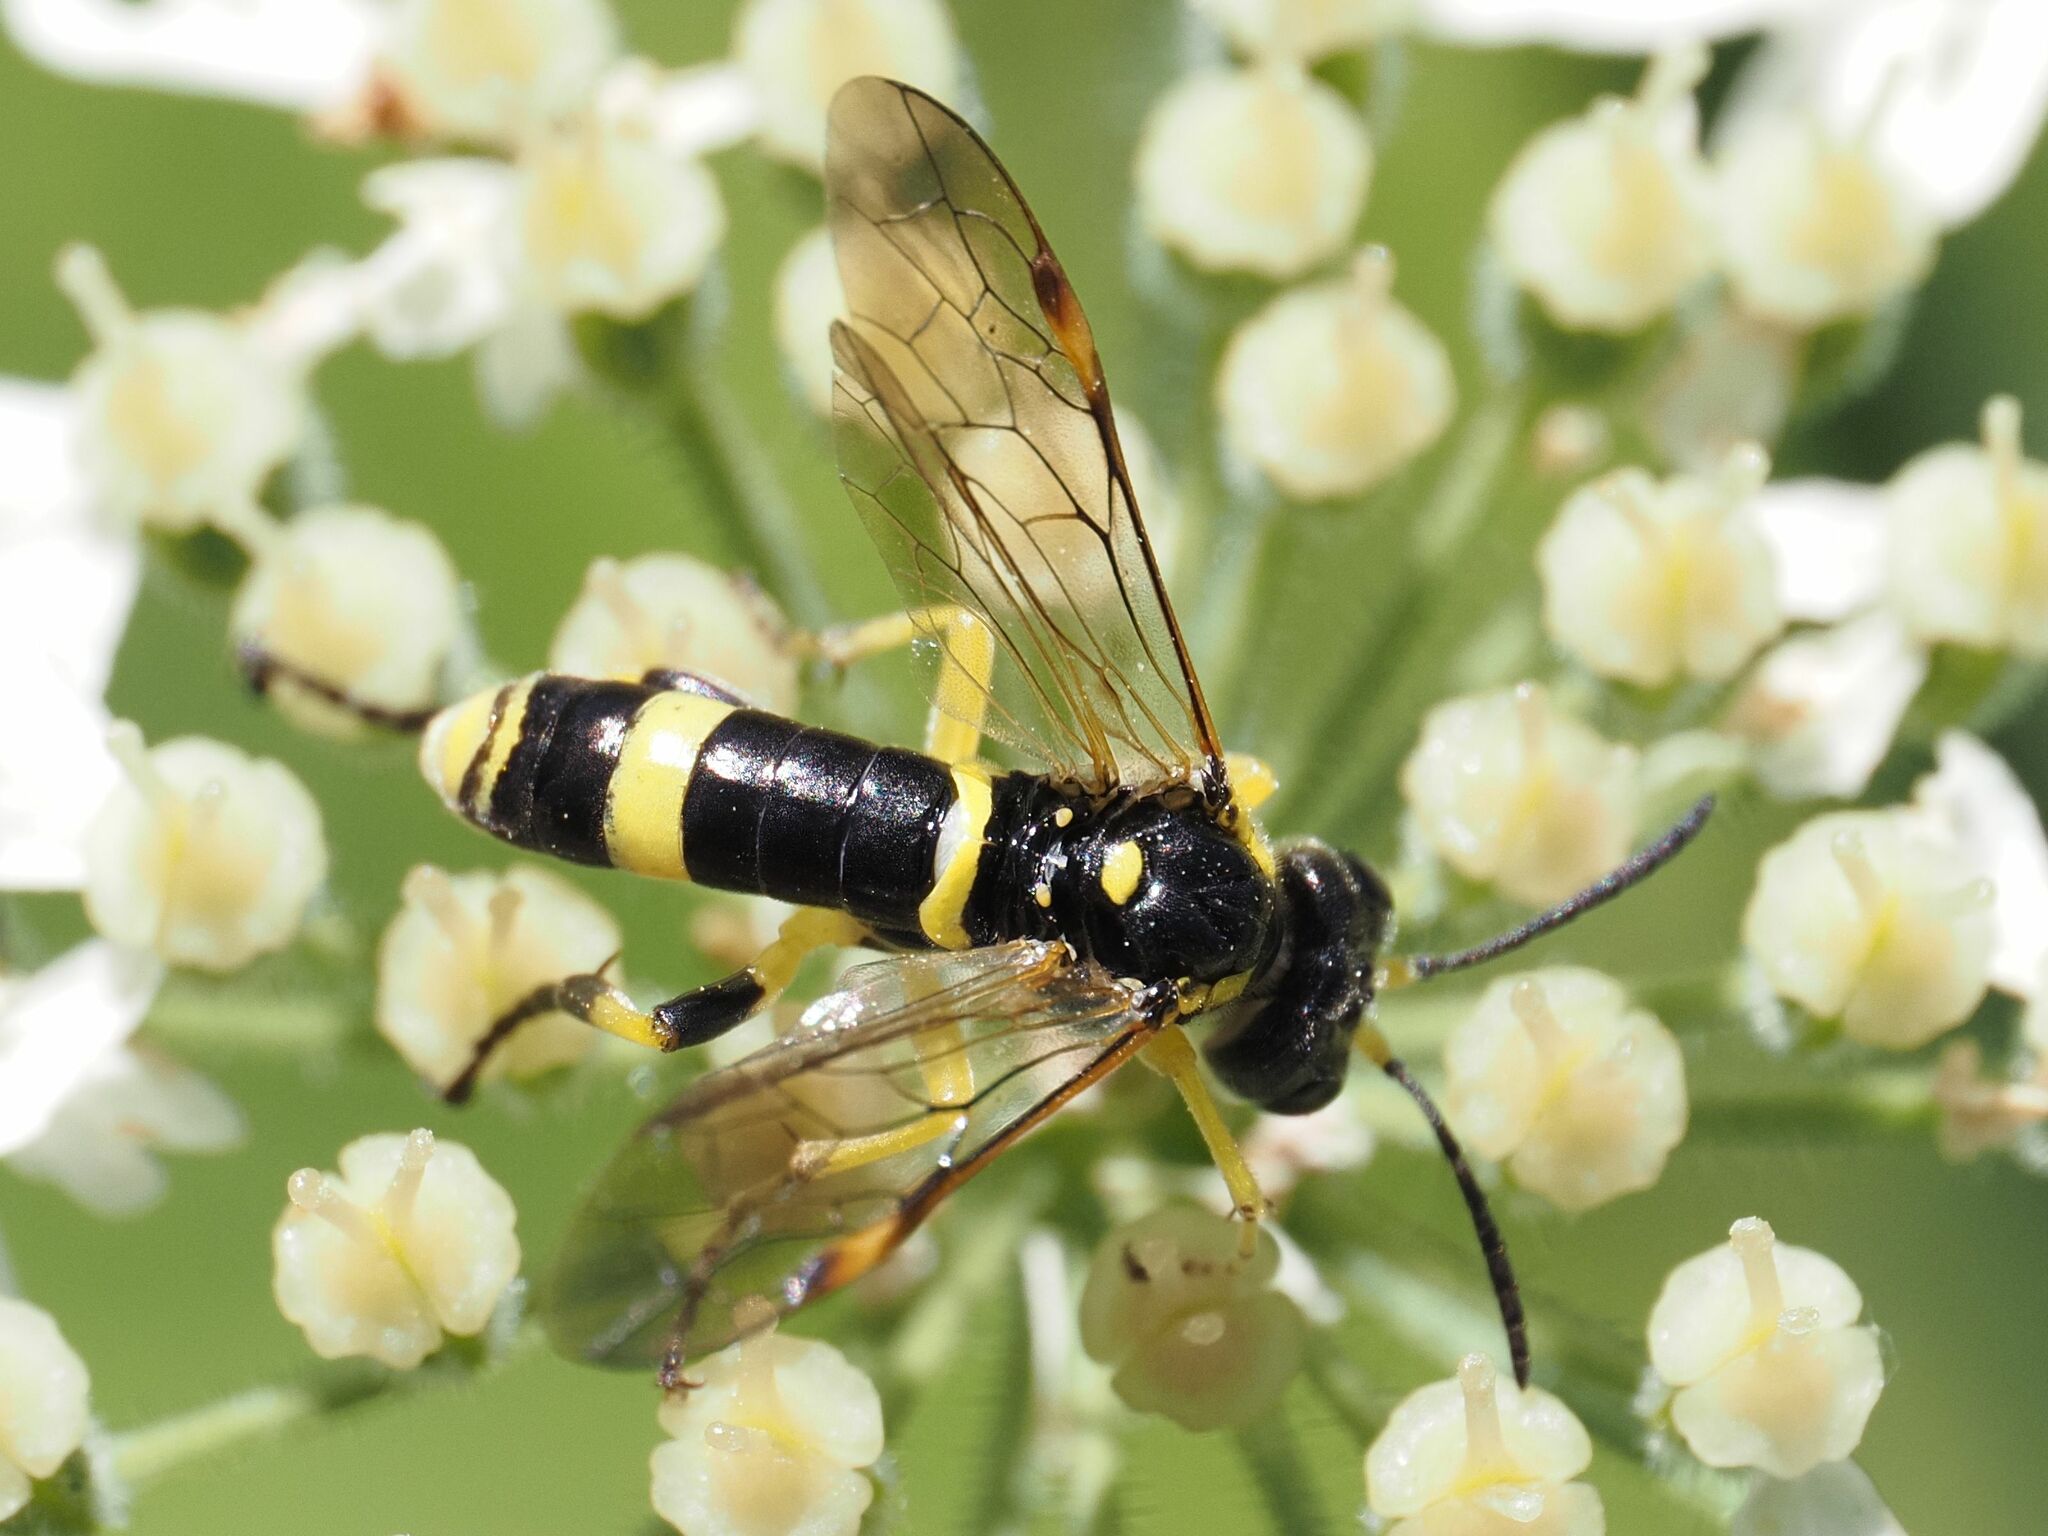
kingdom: Animalia
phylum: Arthropoda
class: Insecta
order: Hymenoptera
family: Tenthredinidae
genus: Tenthredo
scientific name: Tenthredo amoena
